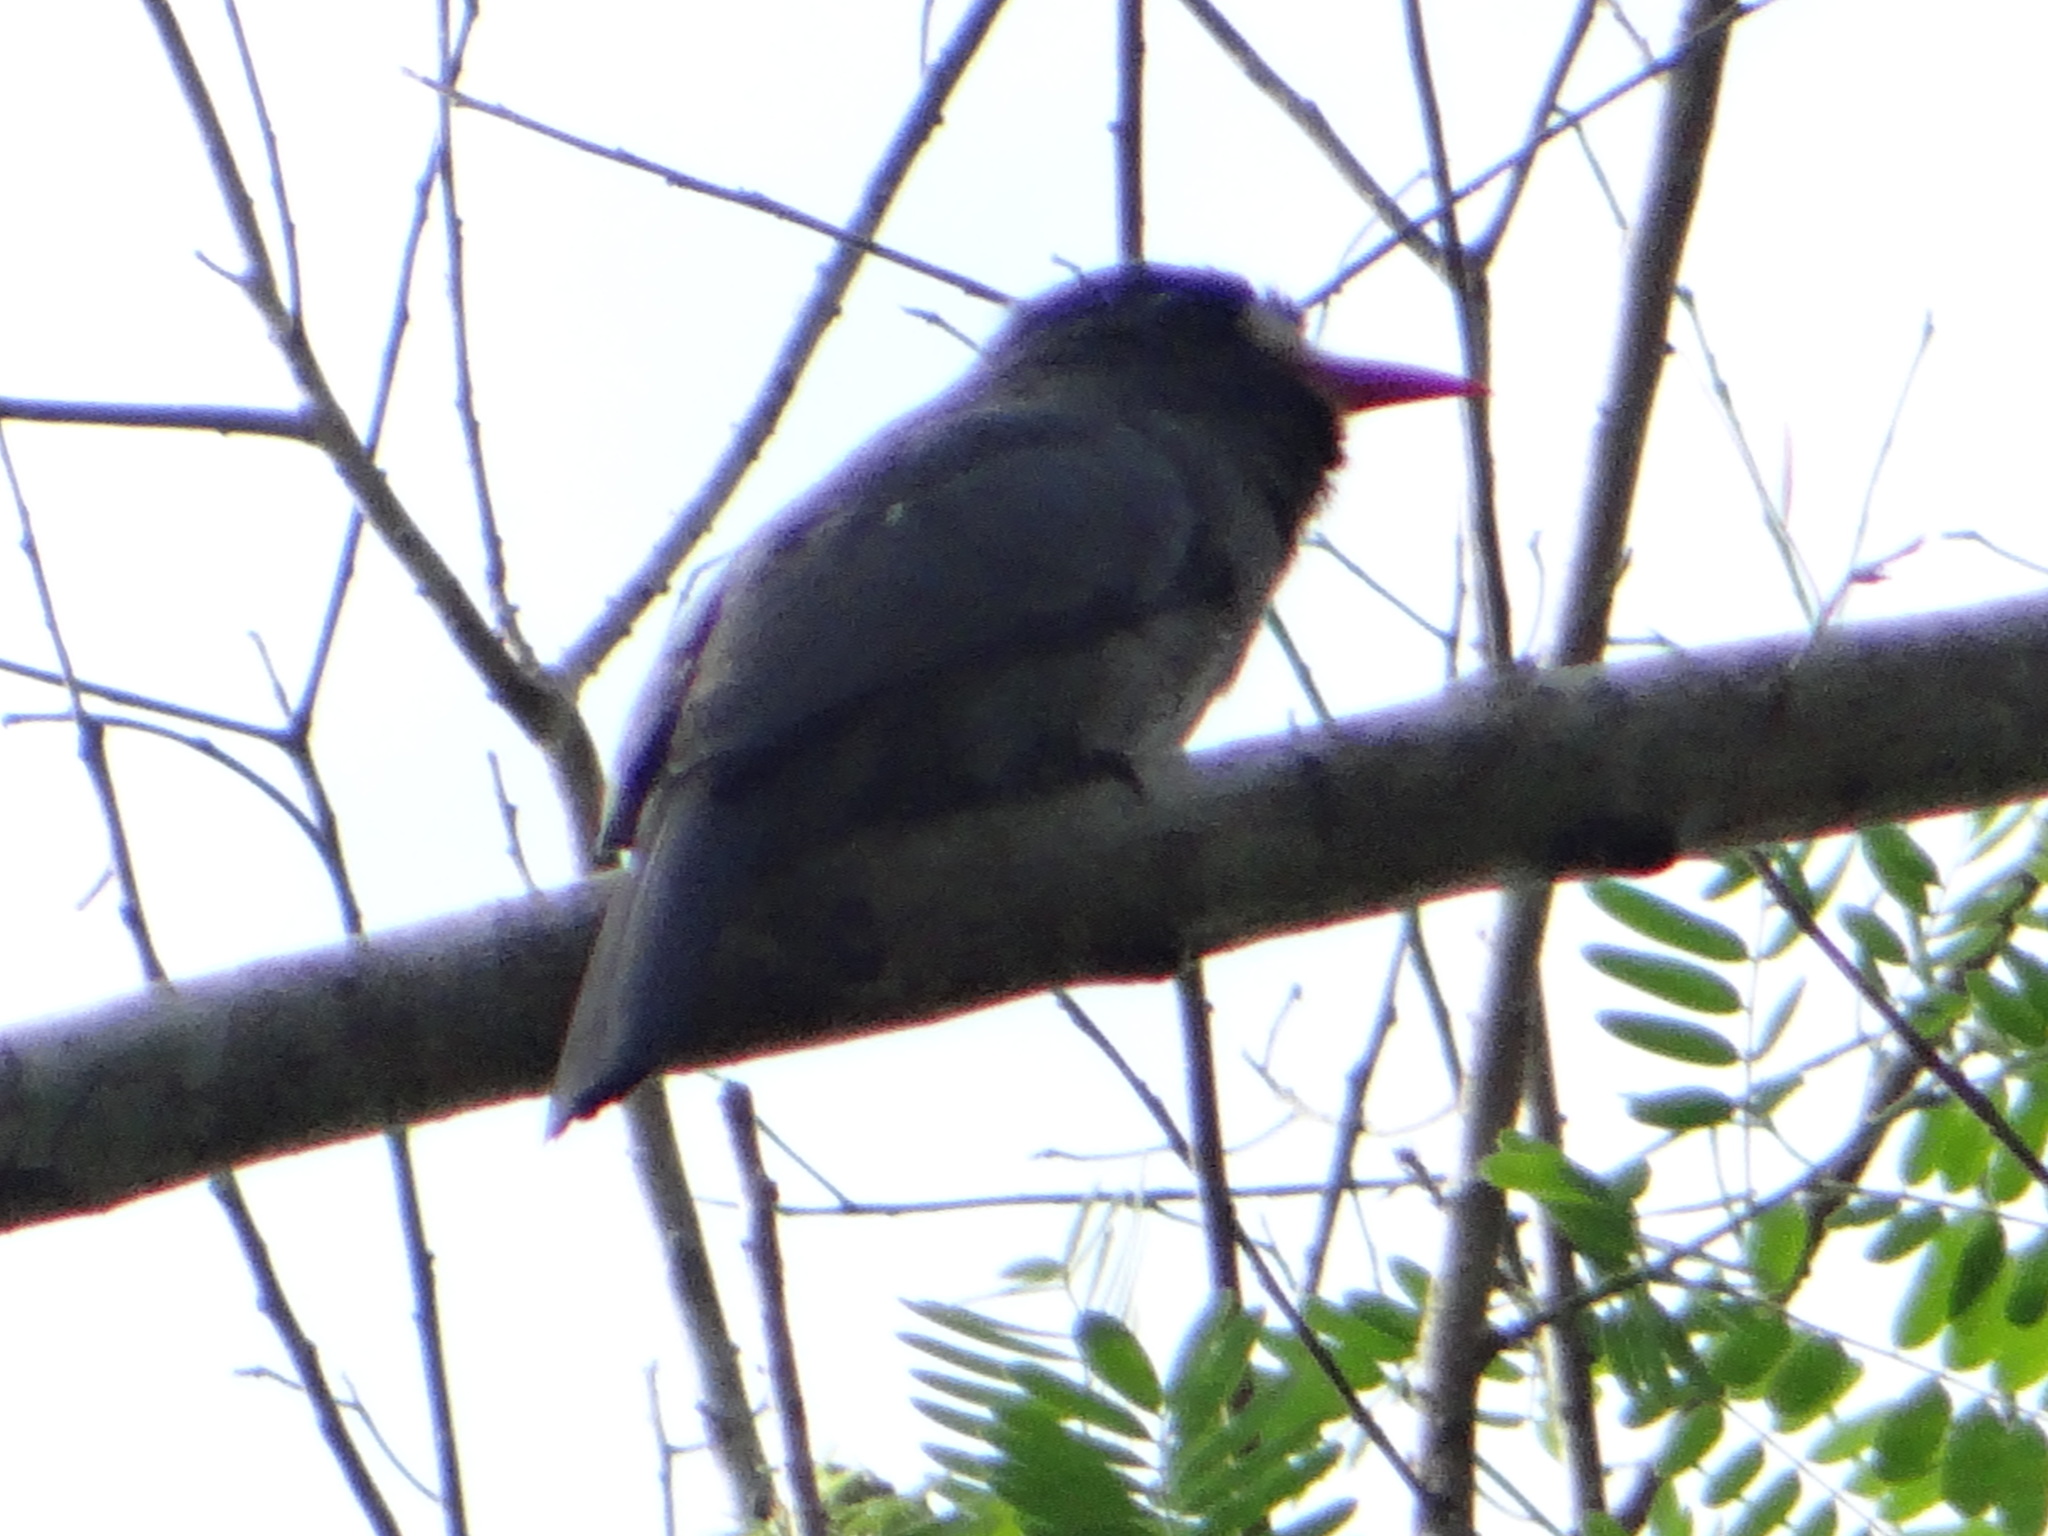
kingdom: Animalia
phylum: Chordata
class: Aves
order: Piciformes
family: Bucconidae
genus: Monasa
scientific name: Monasa morphoeus
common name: White-fronted nunbird
